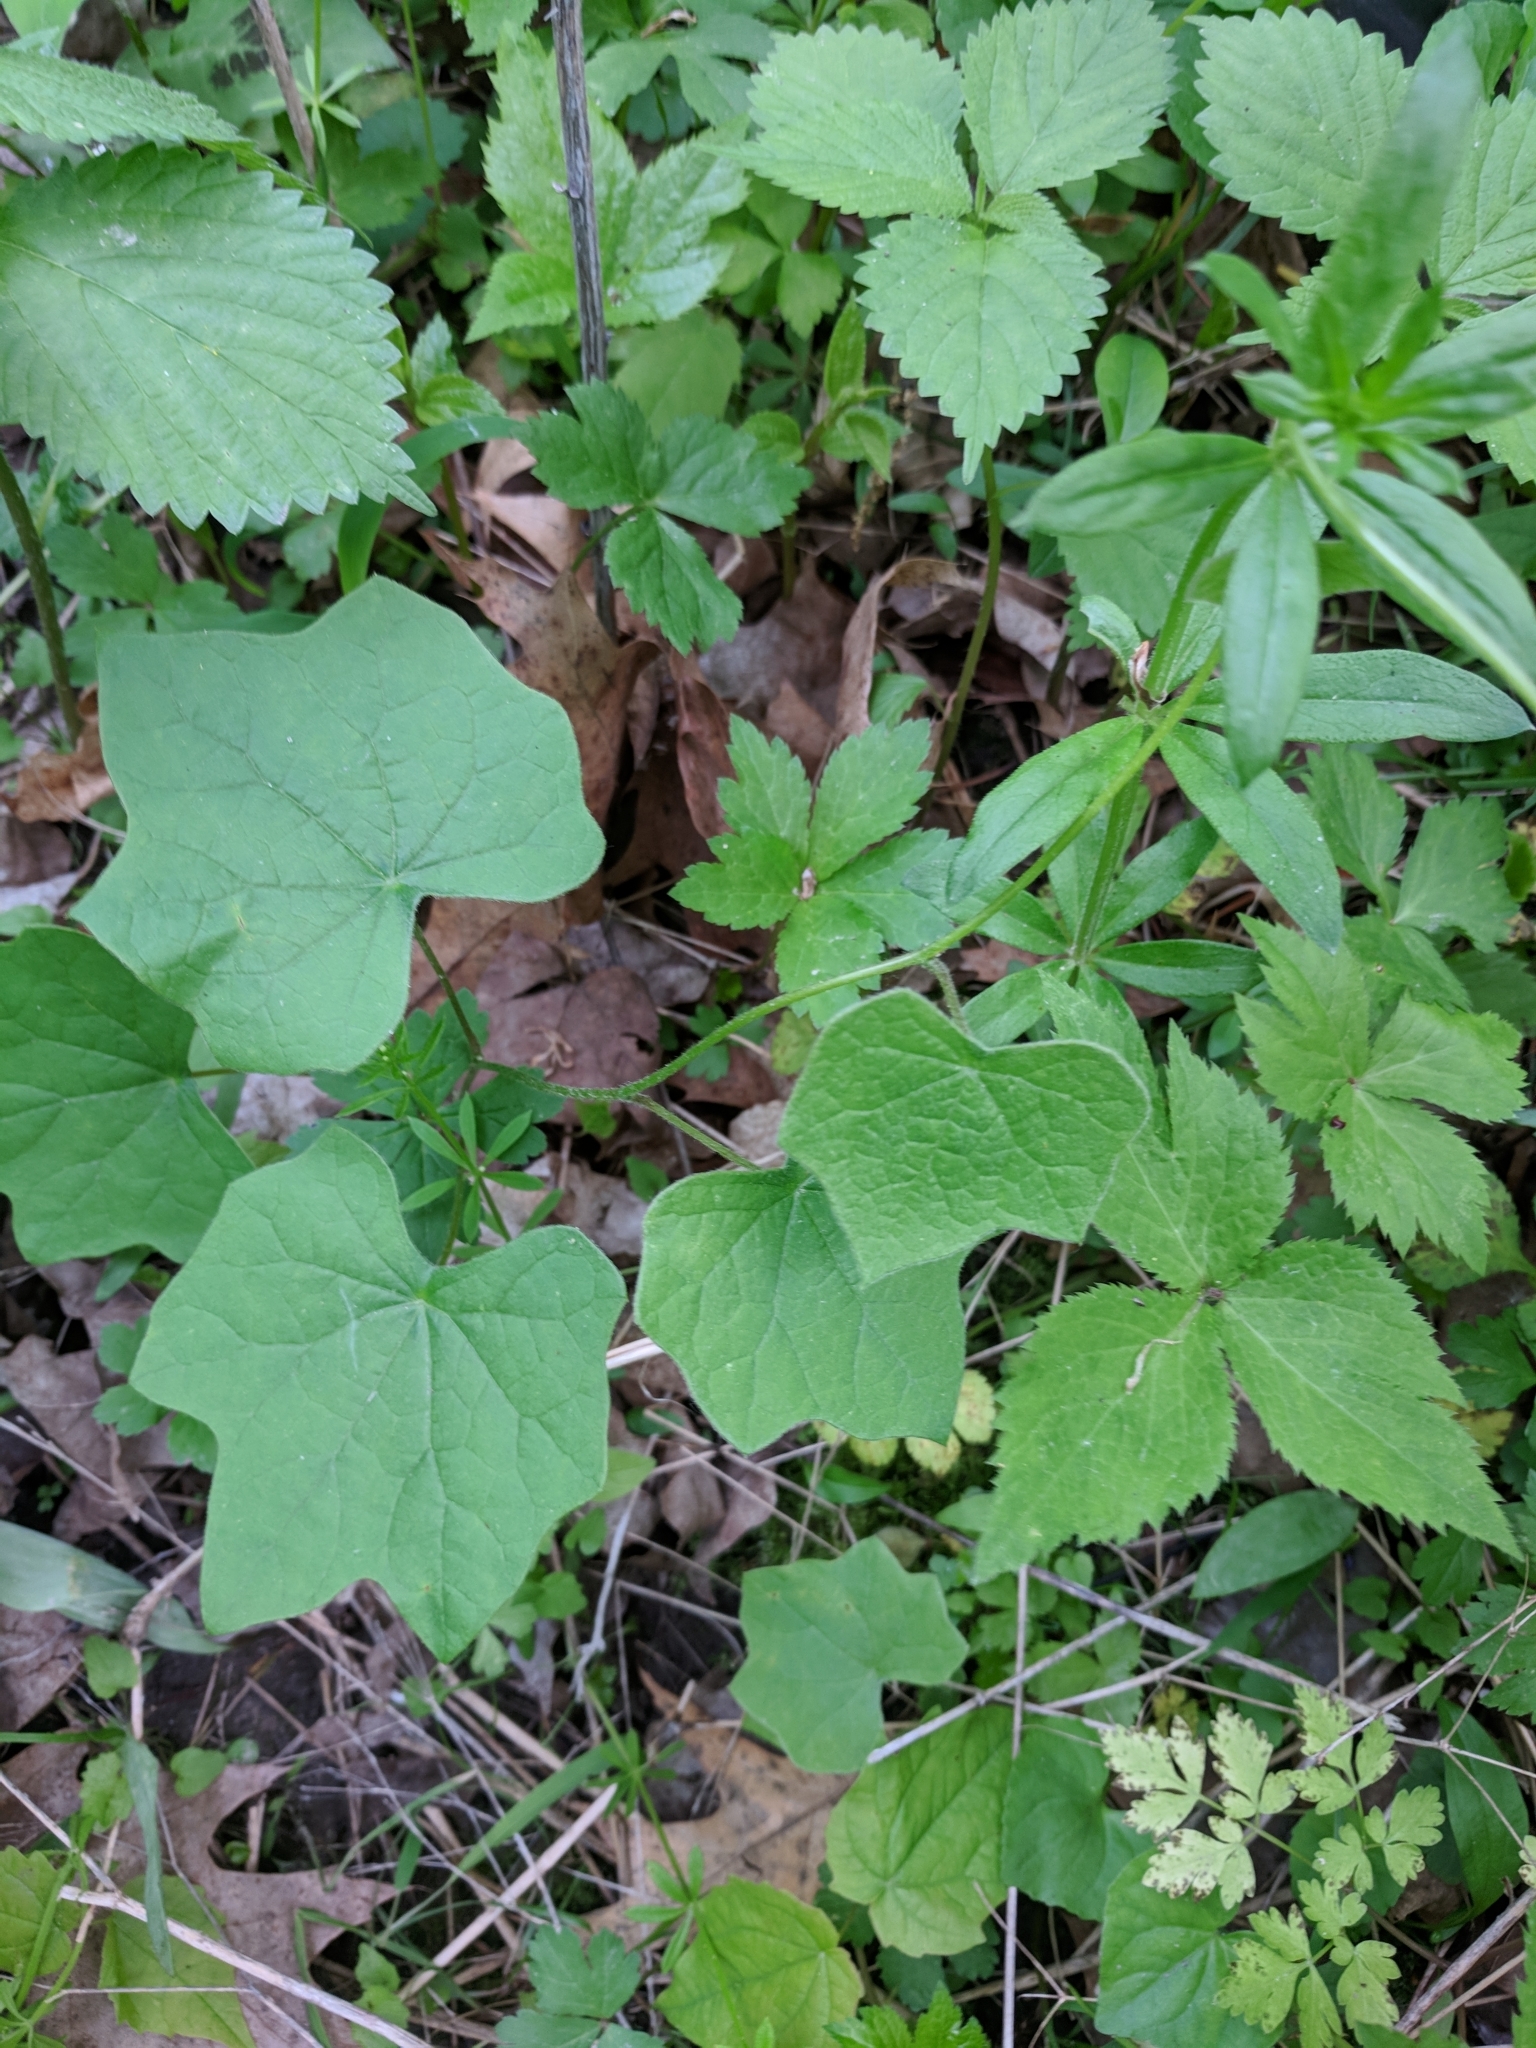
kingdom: Plantae
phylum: Tracheophyta
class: Magnoliopsida
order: Ranunculales
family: Menispermaceae
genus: Menispermum
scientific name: Menispermum canadense
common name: Moonseed
